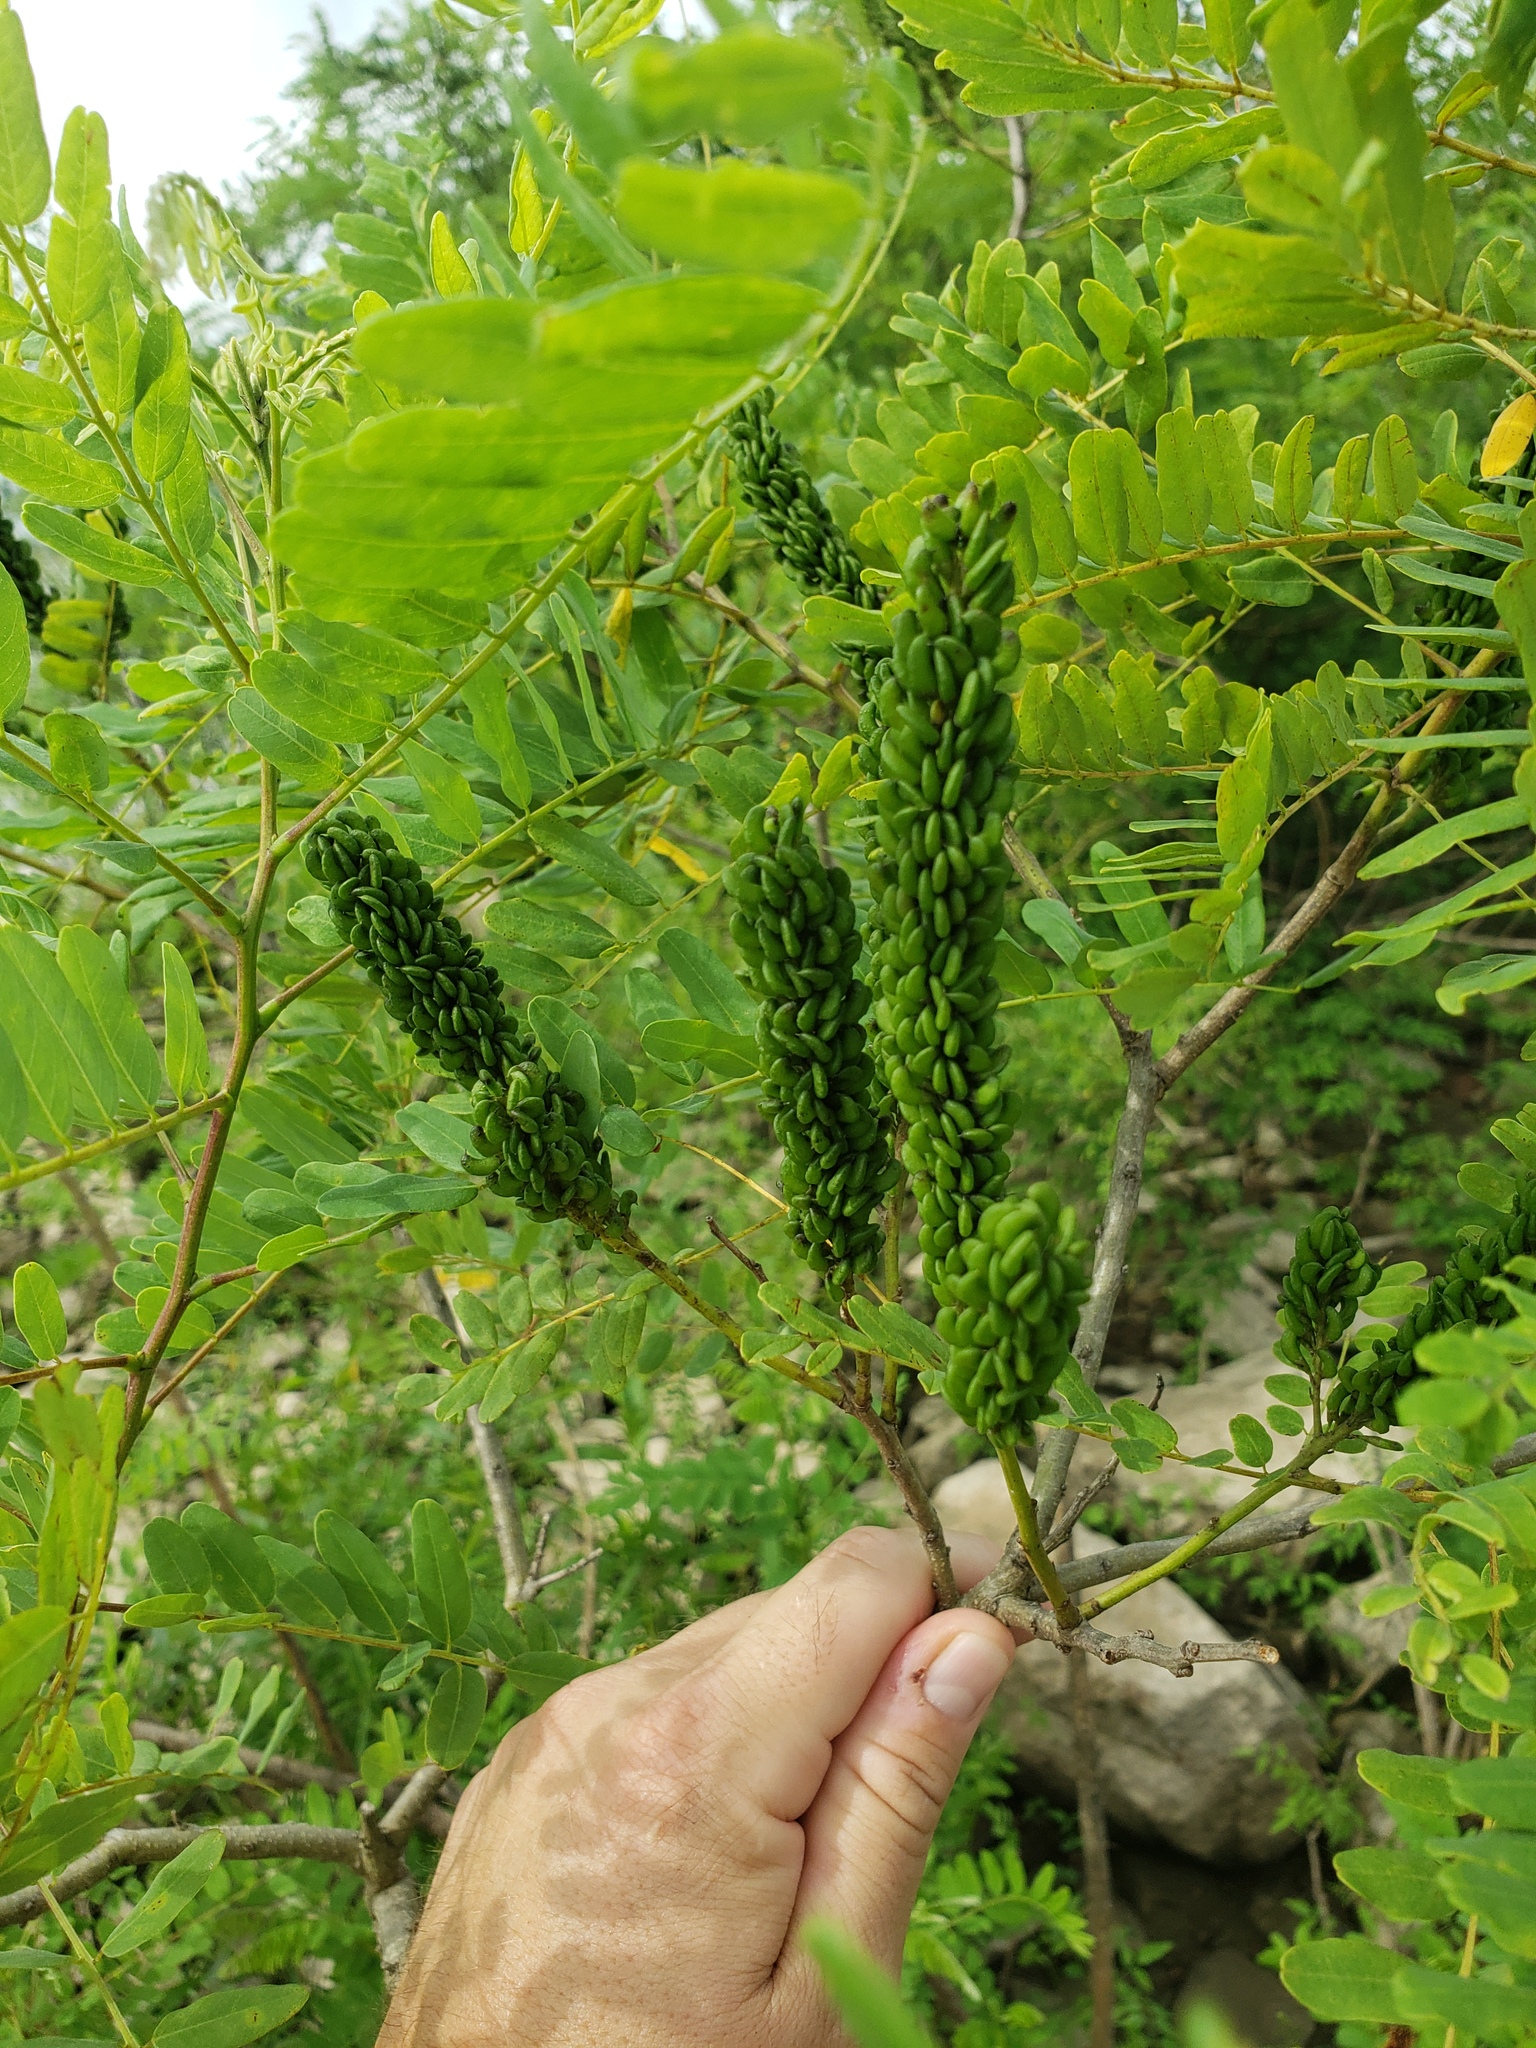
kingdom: Plantae
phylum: Tracheophyta
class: Magnoliopsida
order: Fabales
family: Fabaceae
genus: Amorpha
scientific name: Amorpha fruticosa
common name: False indigo
